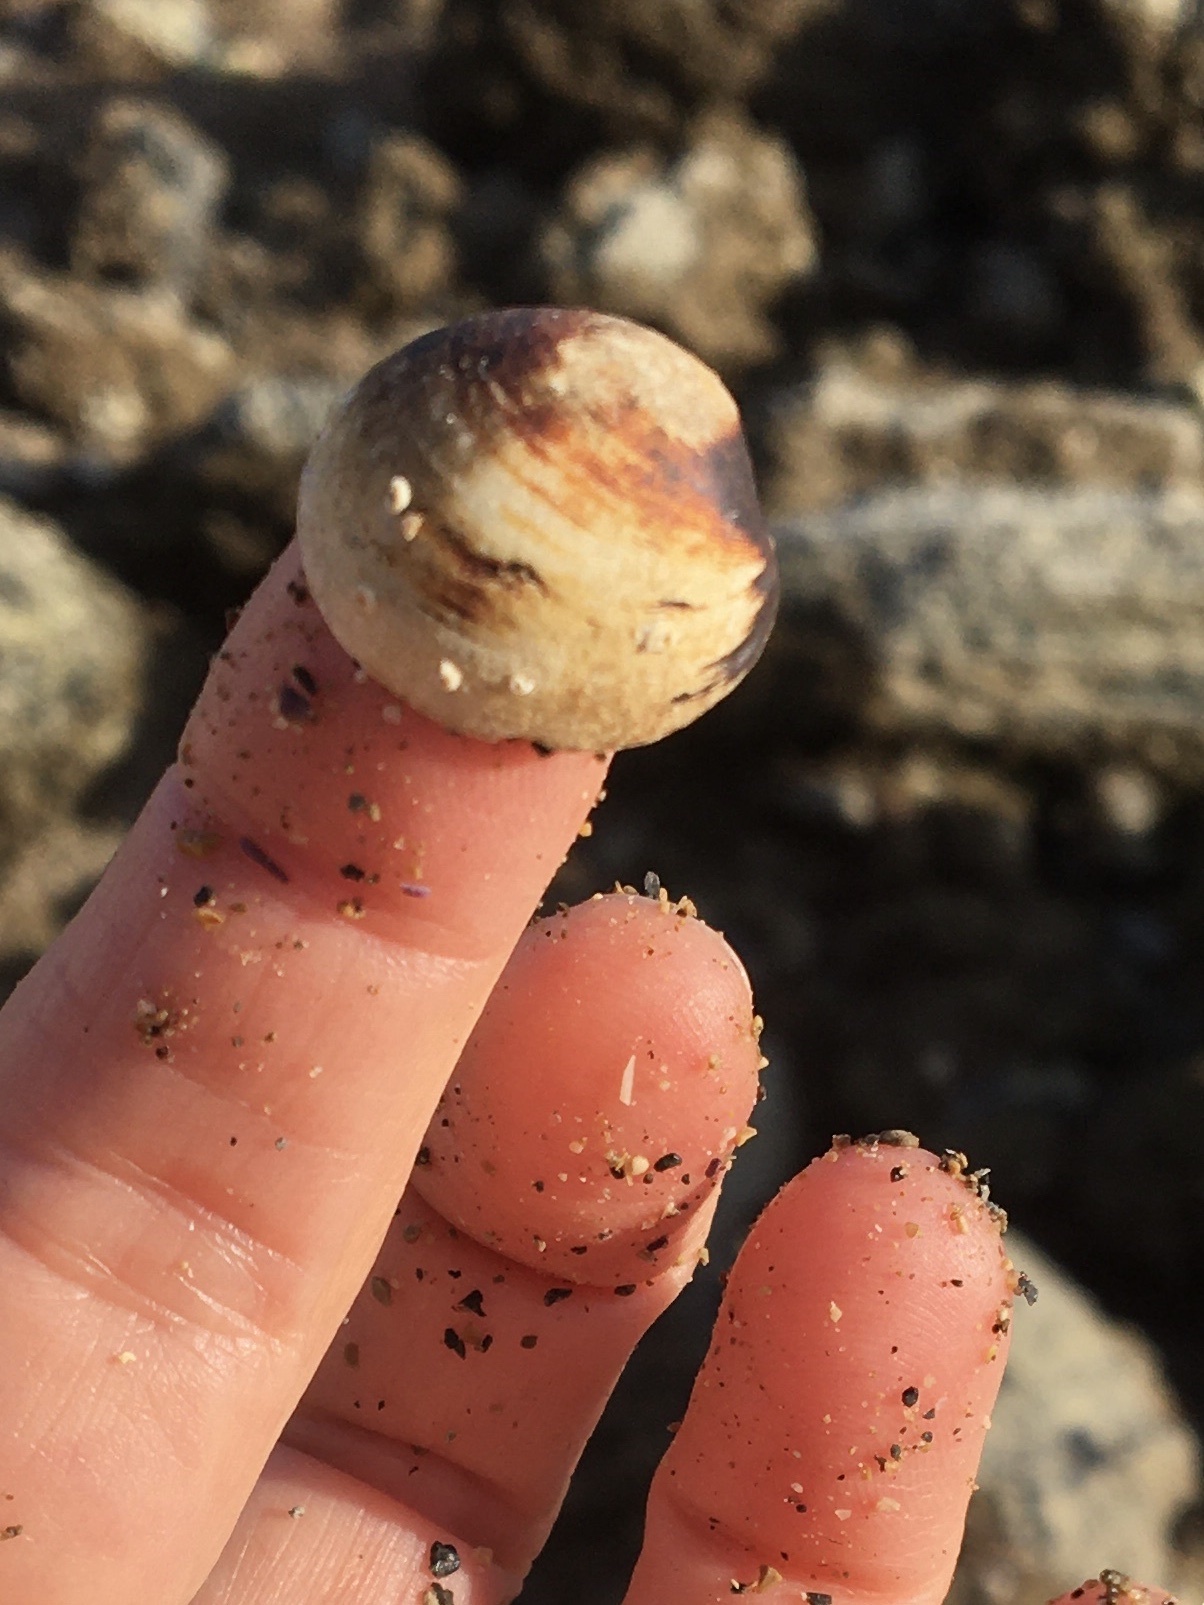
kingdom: Animalia
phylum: Mollusca
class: Bivalvia
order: Venerida
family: Ungulinidae
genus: Zemysina
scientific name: Zemysina orbella
